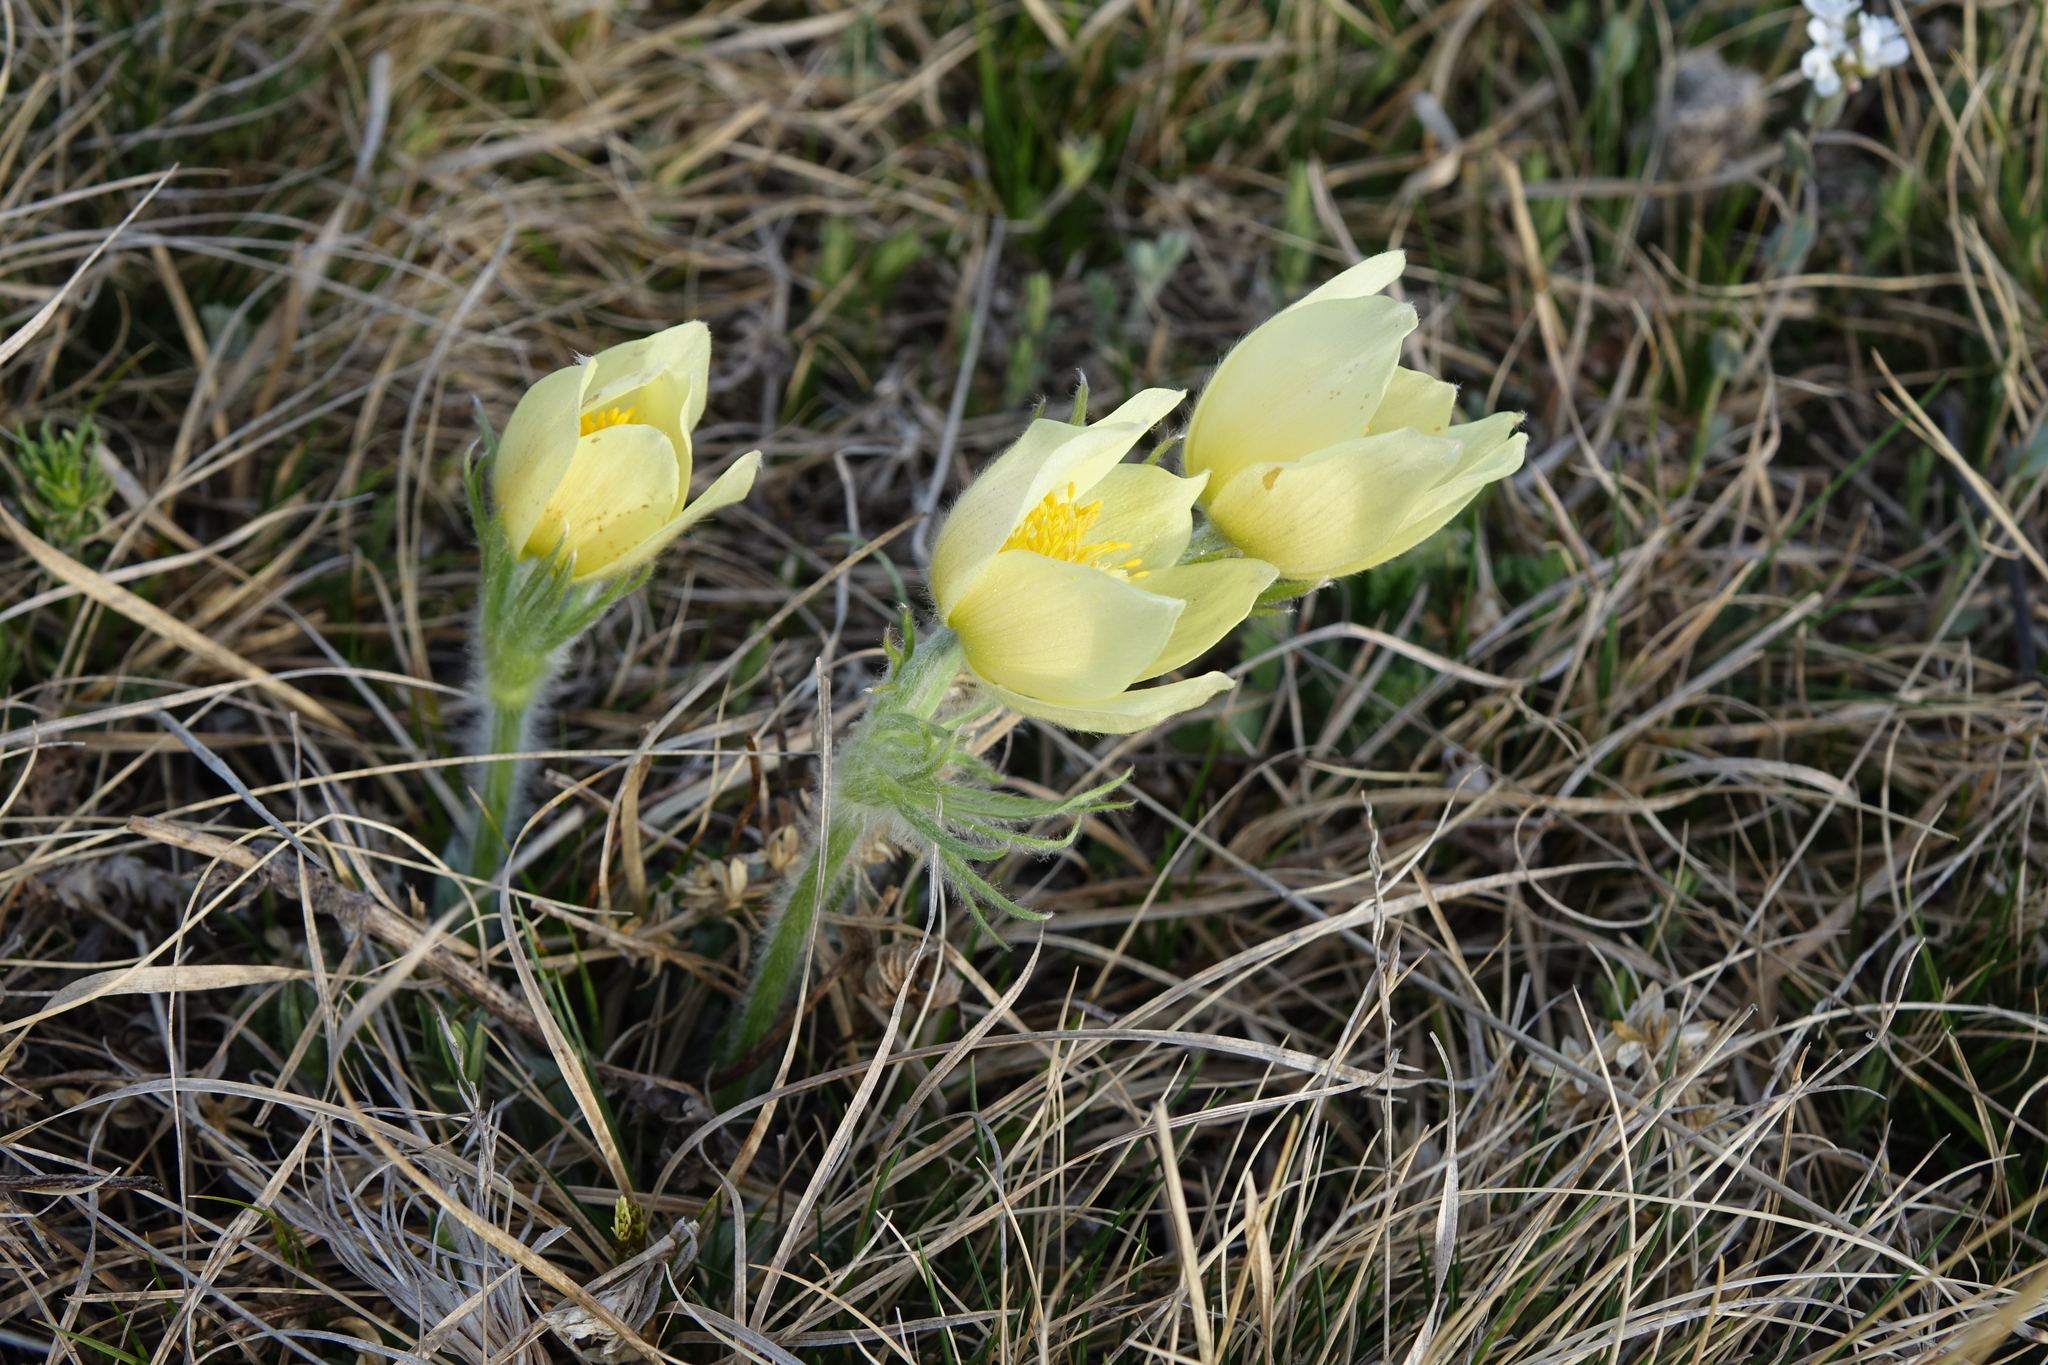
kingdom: Plantae
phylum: Tracheophyta
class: Magnoliopsida
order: Ranunculales
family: Ranunculaceae
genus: Pulsatilla
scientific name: Pulsatilla patens
